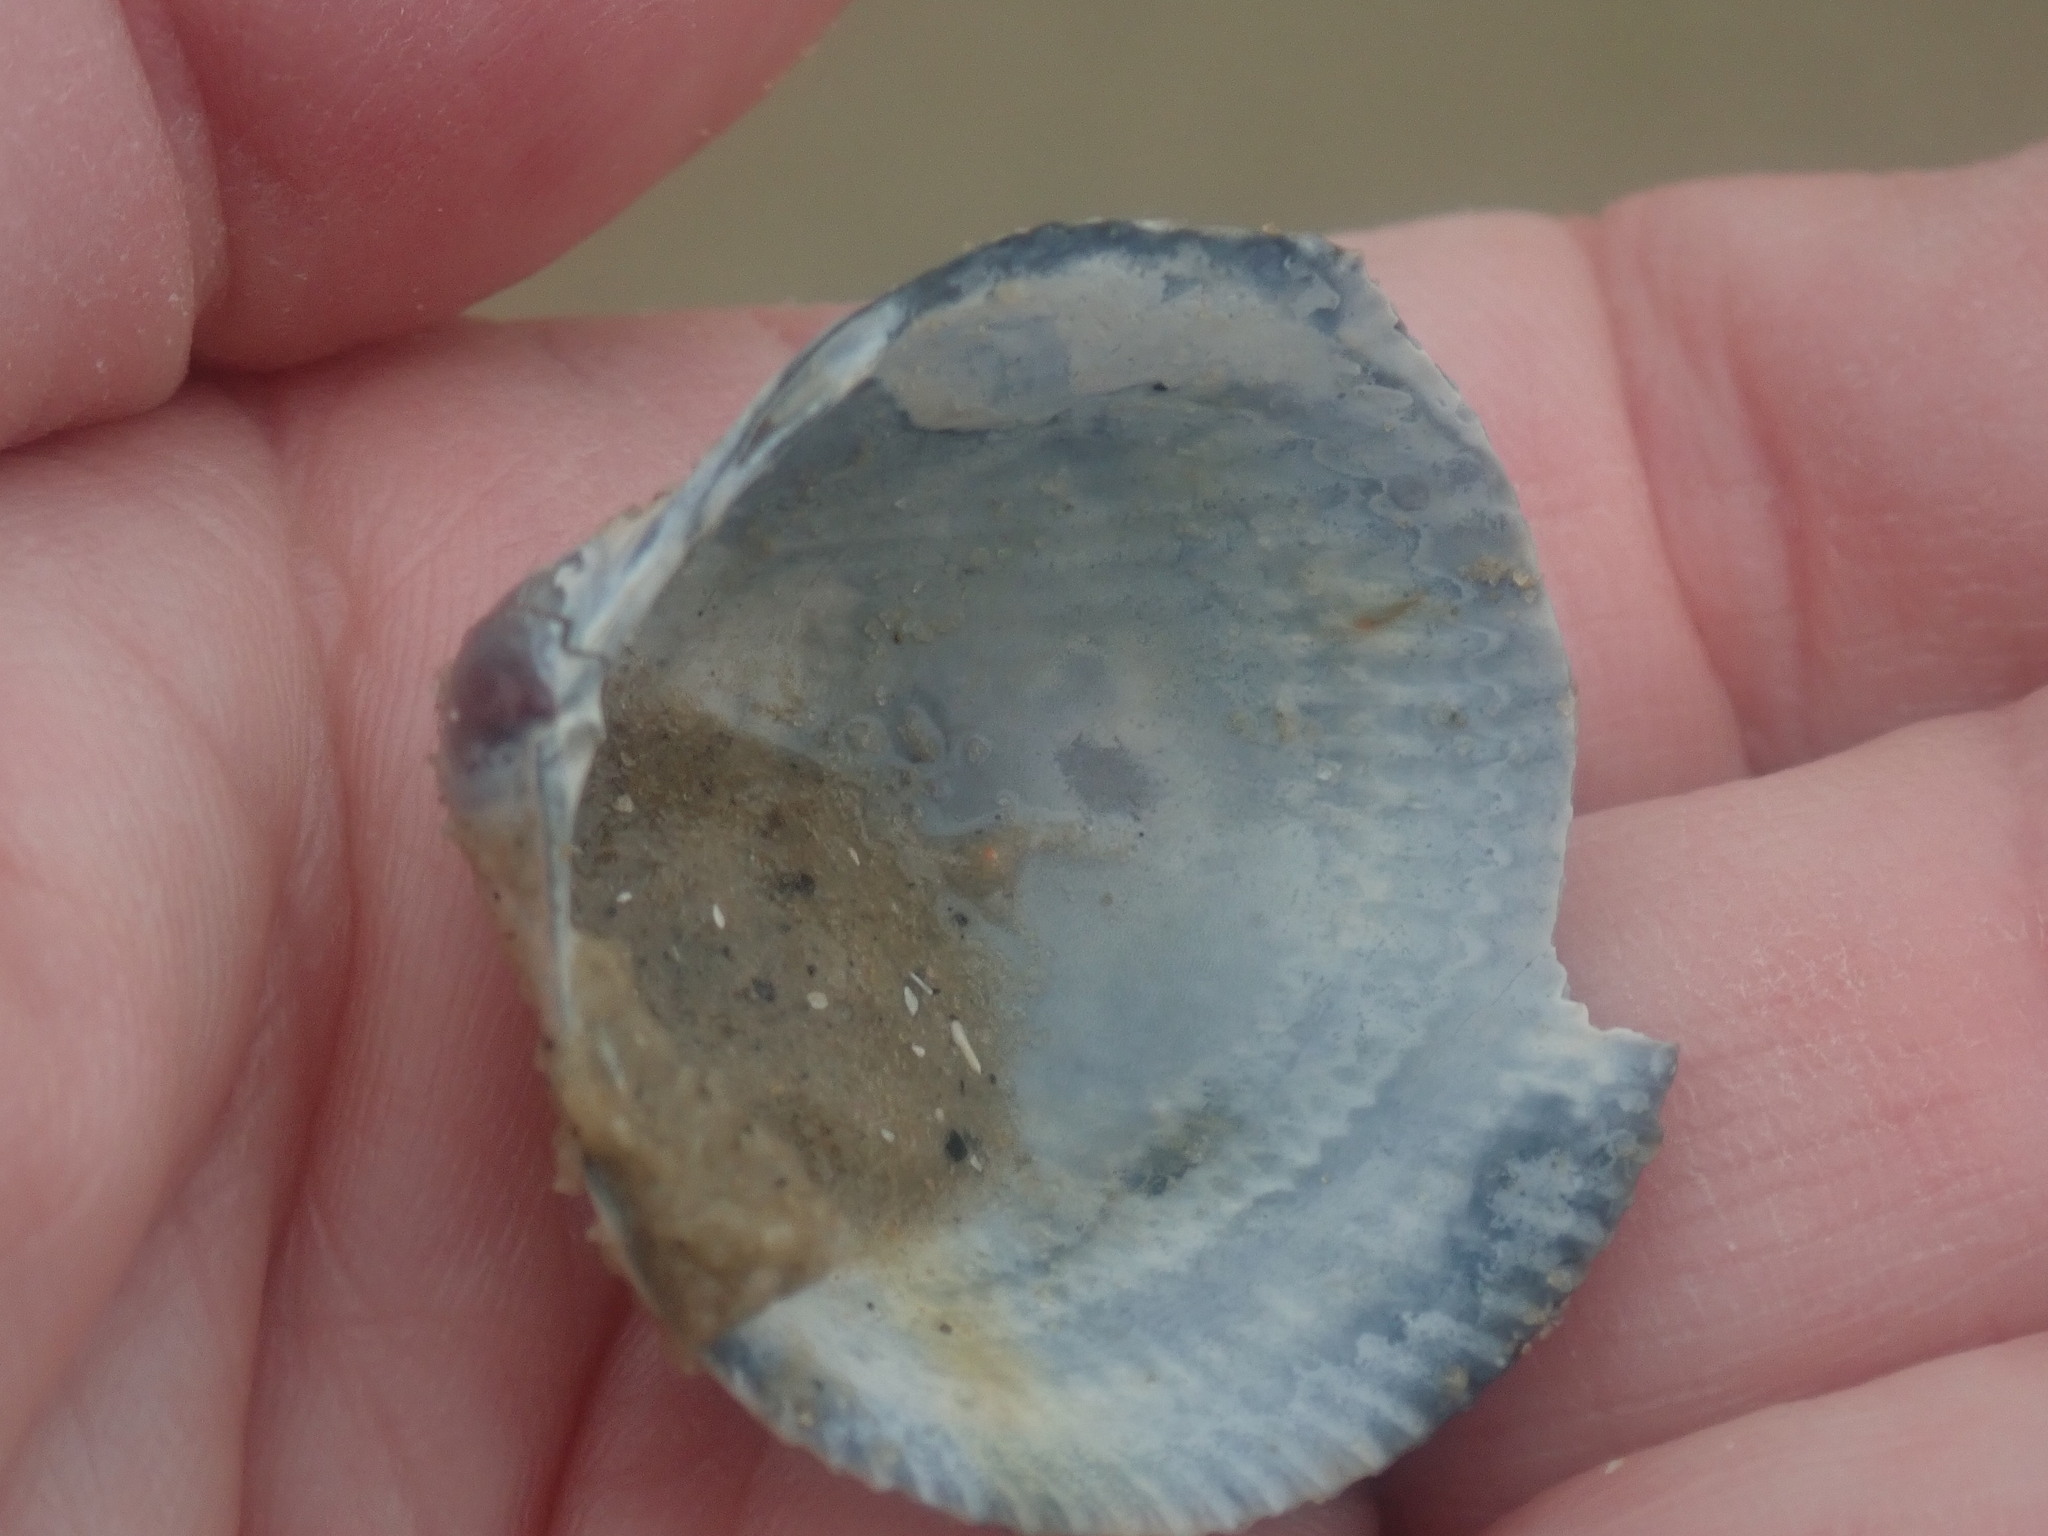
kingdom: Animalia
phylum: Mollusca
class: Bivalvia
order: Cardiida
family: Cardiidae
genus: Fulvia
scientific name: Fulvia tenuicostata
